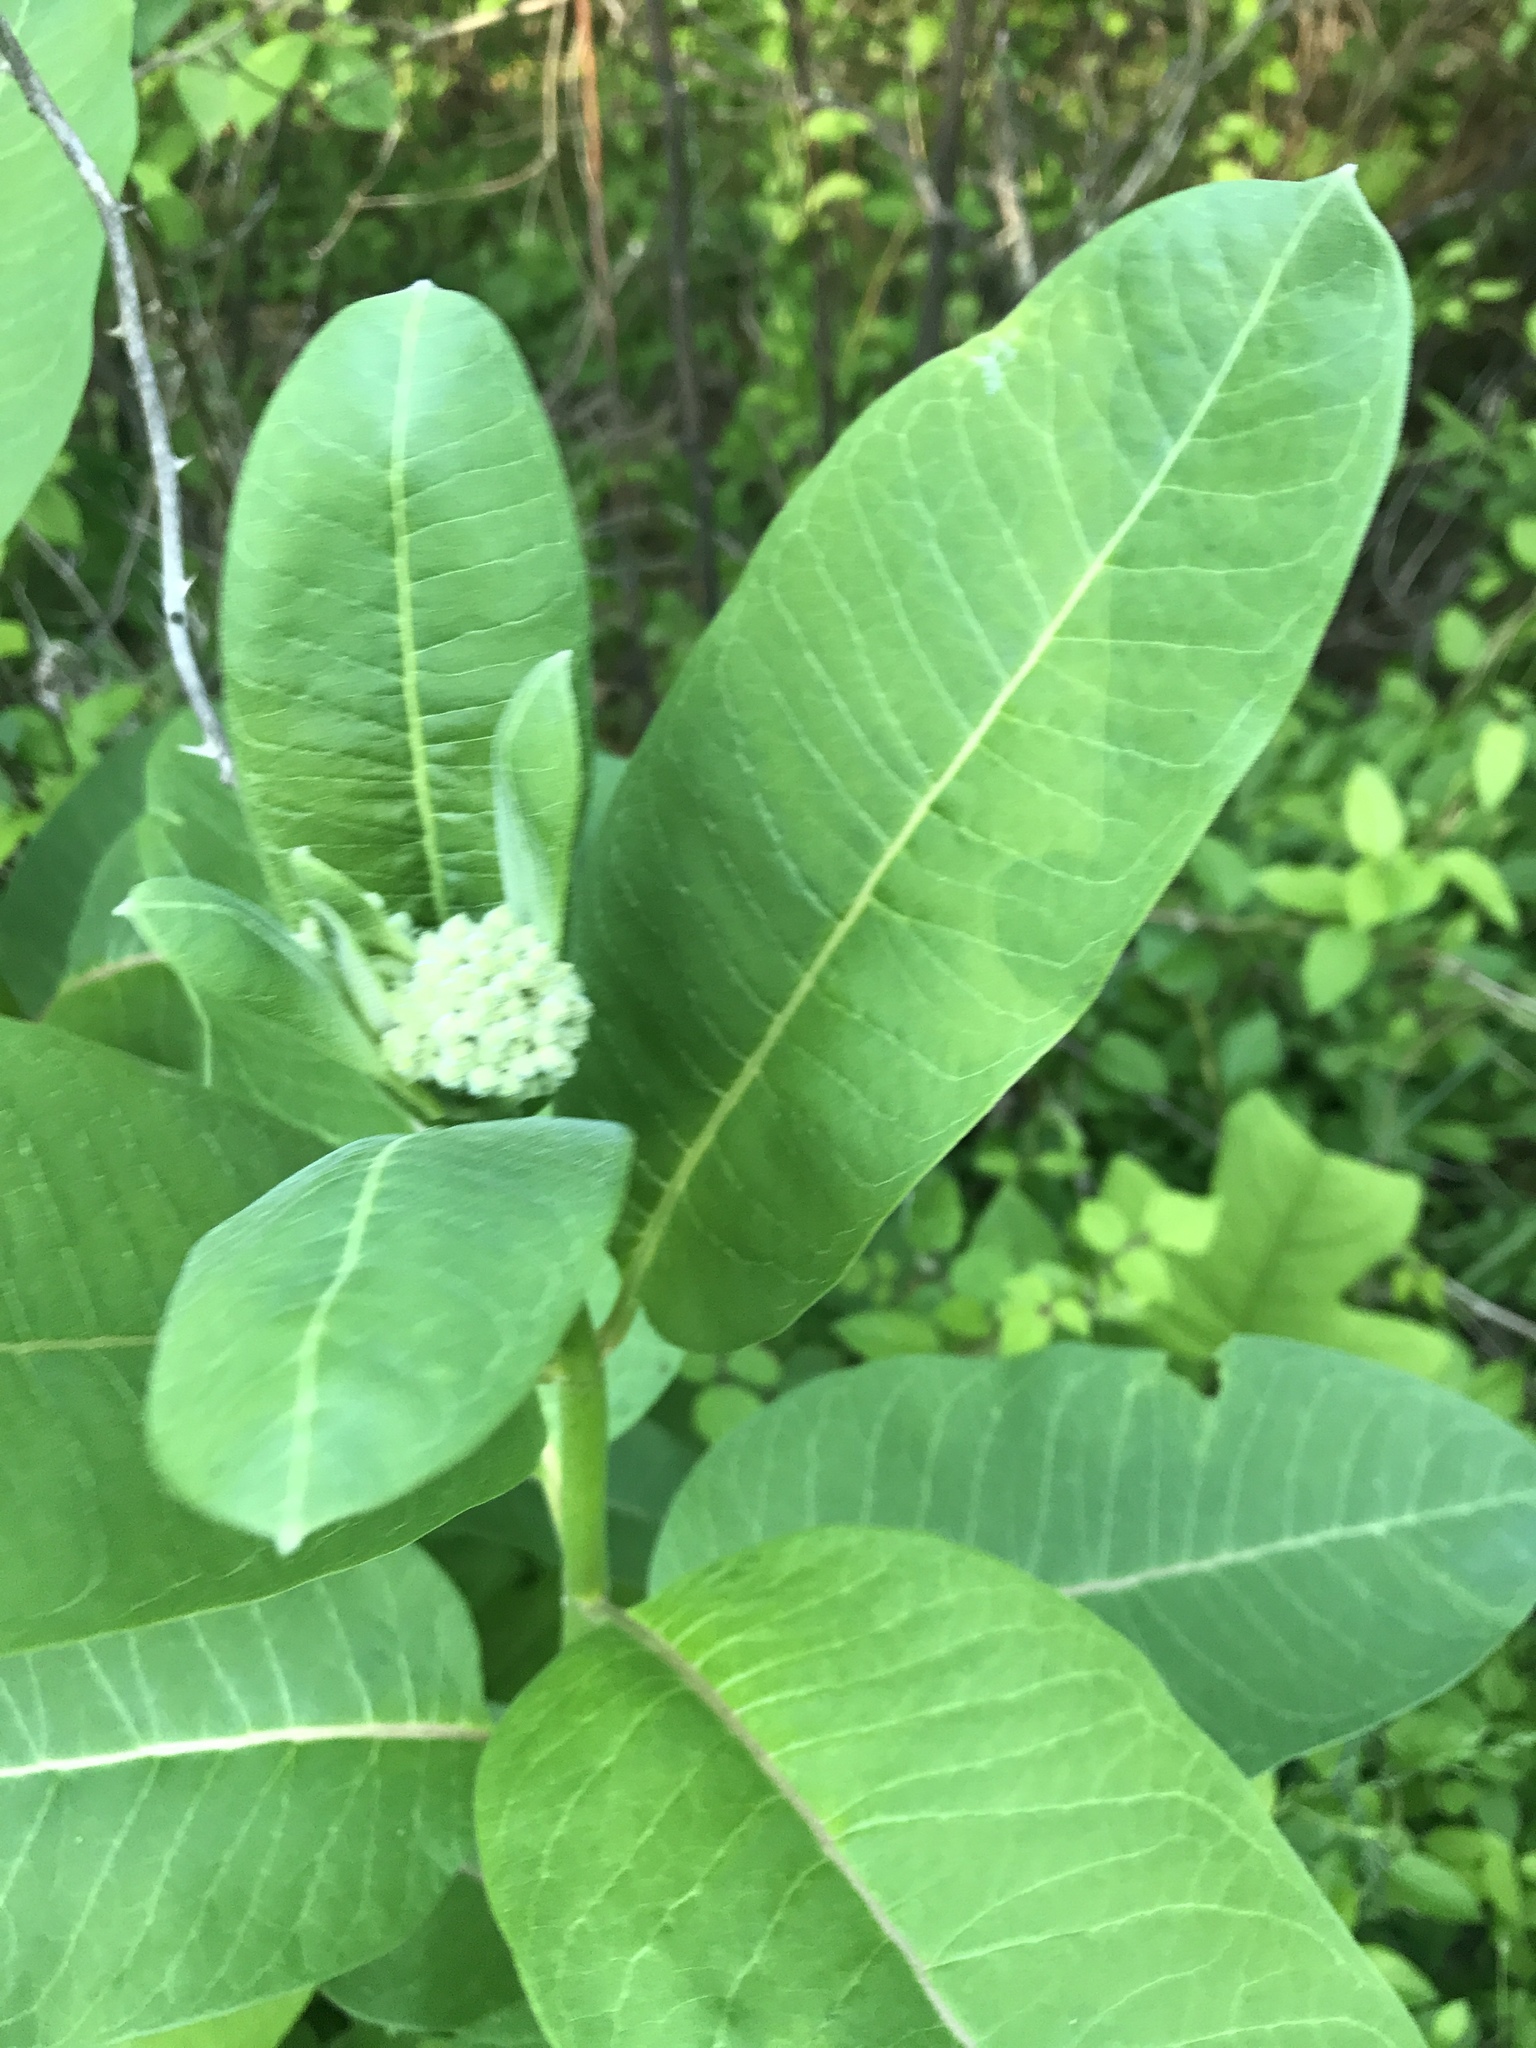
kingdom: Plantae
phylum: Tracheophyta
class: Magnoliopsida
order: Gentianales
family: Apocynaceae
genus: Asclepias
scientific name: Asclepias syriaca
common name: Common milkweed
